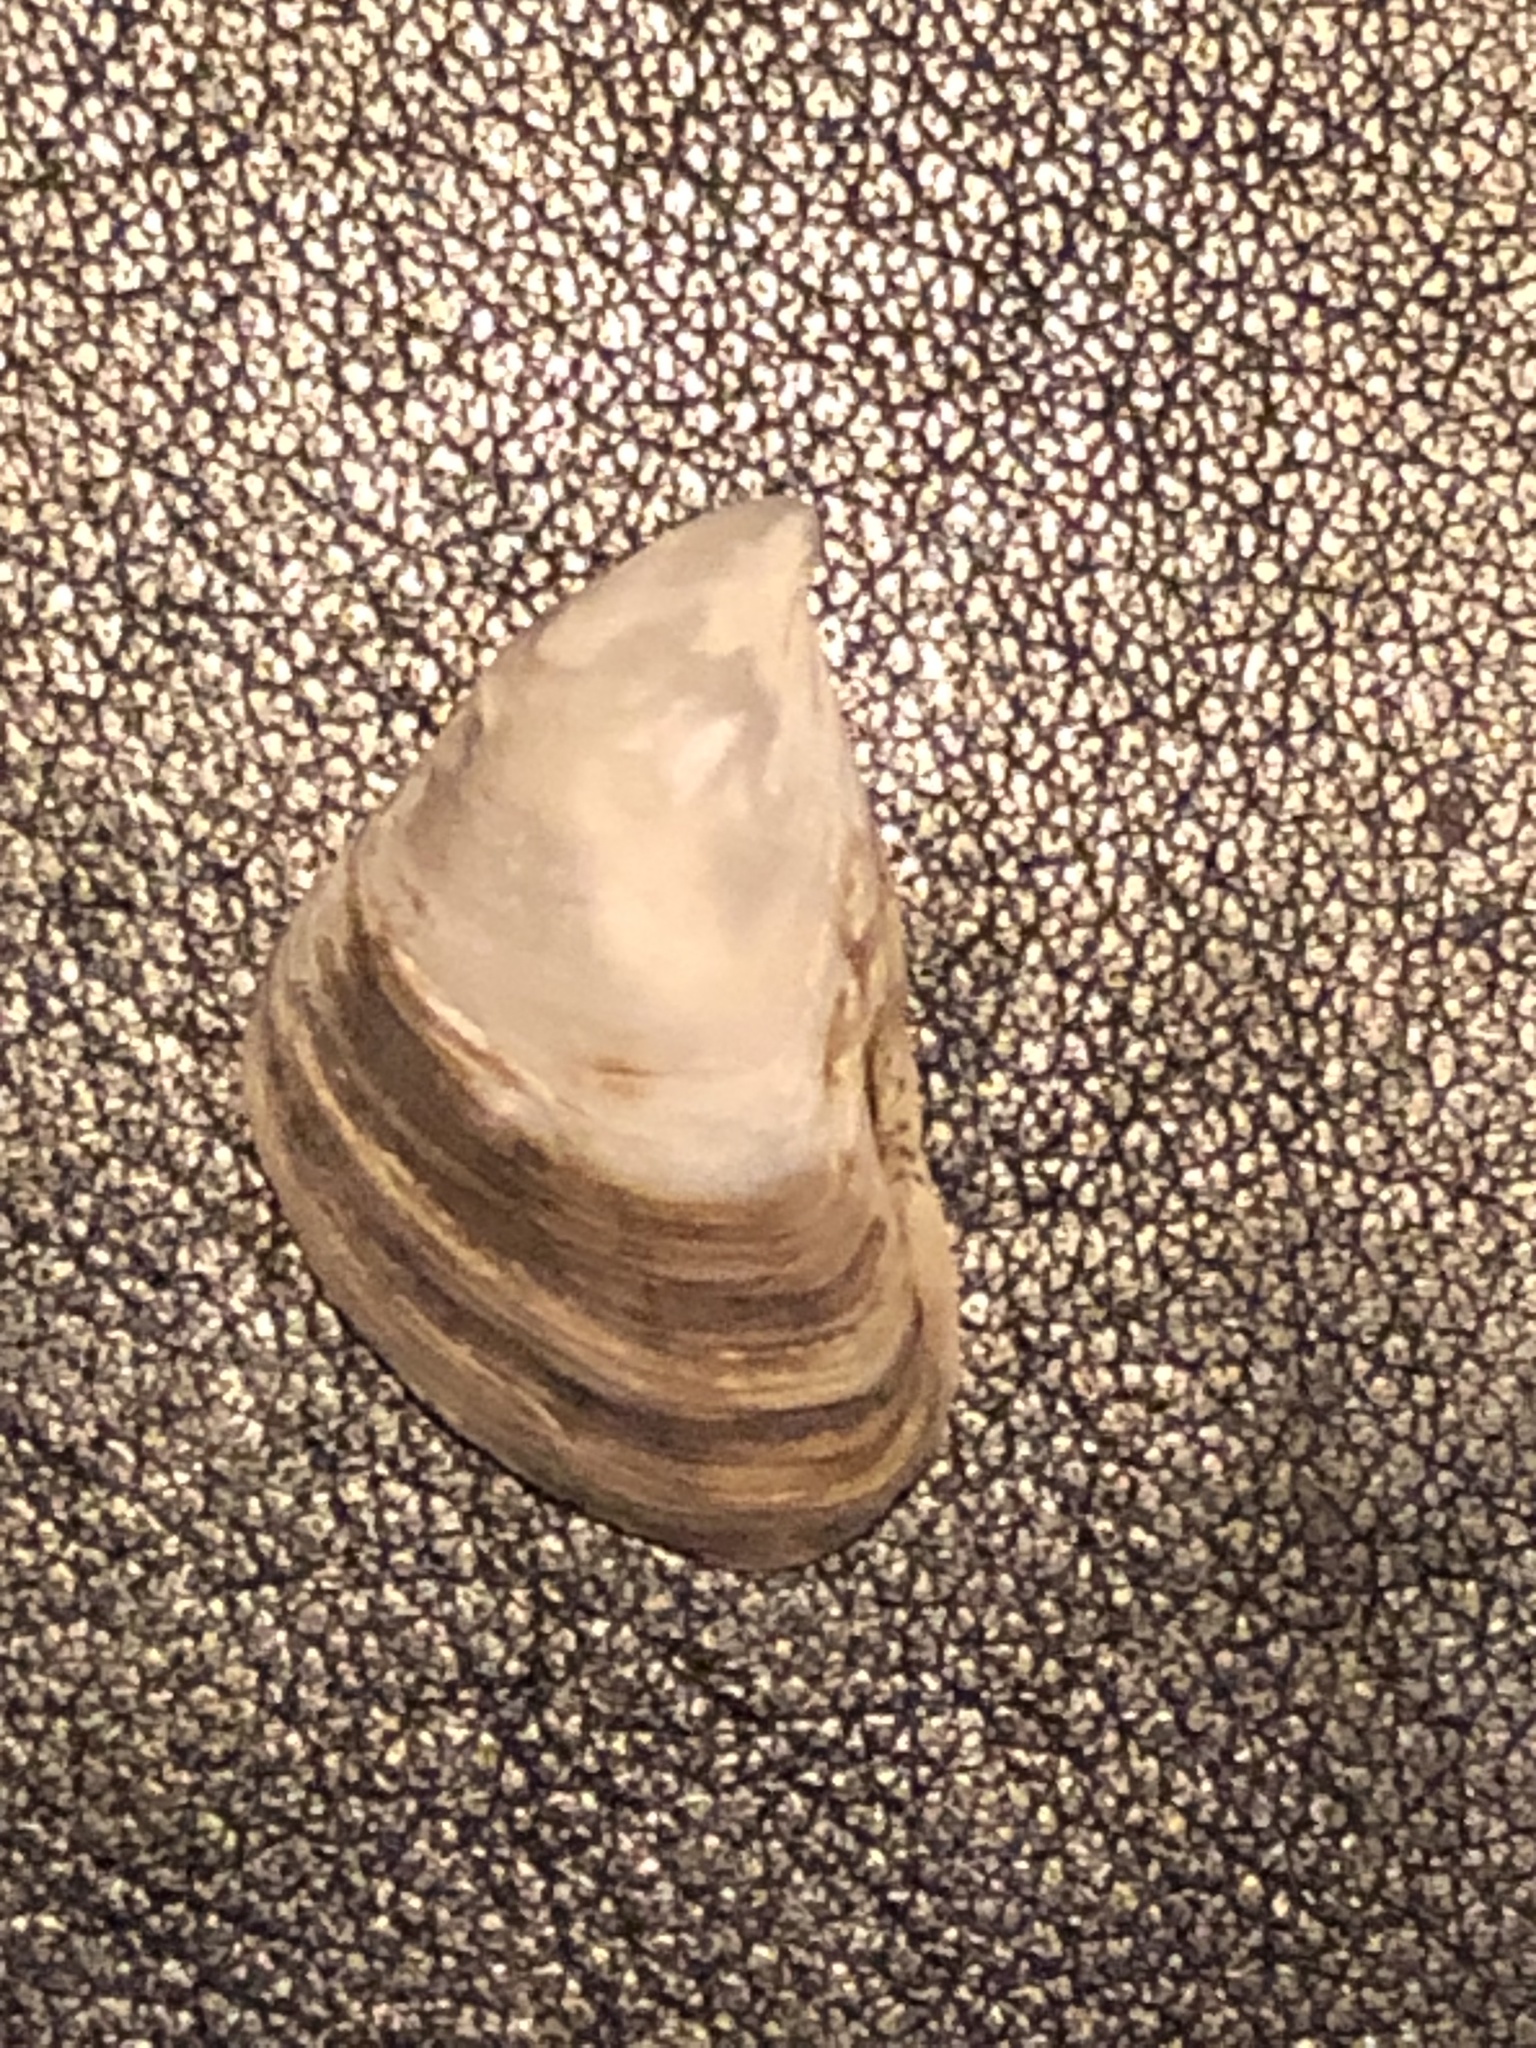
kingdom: Animalia
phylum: Mollusca
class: Bivalvia
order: Myida
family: Dreissenidae
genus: Dreissena
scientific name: Dreissena bugensis
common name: Quagga mussel
